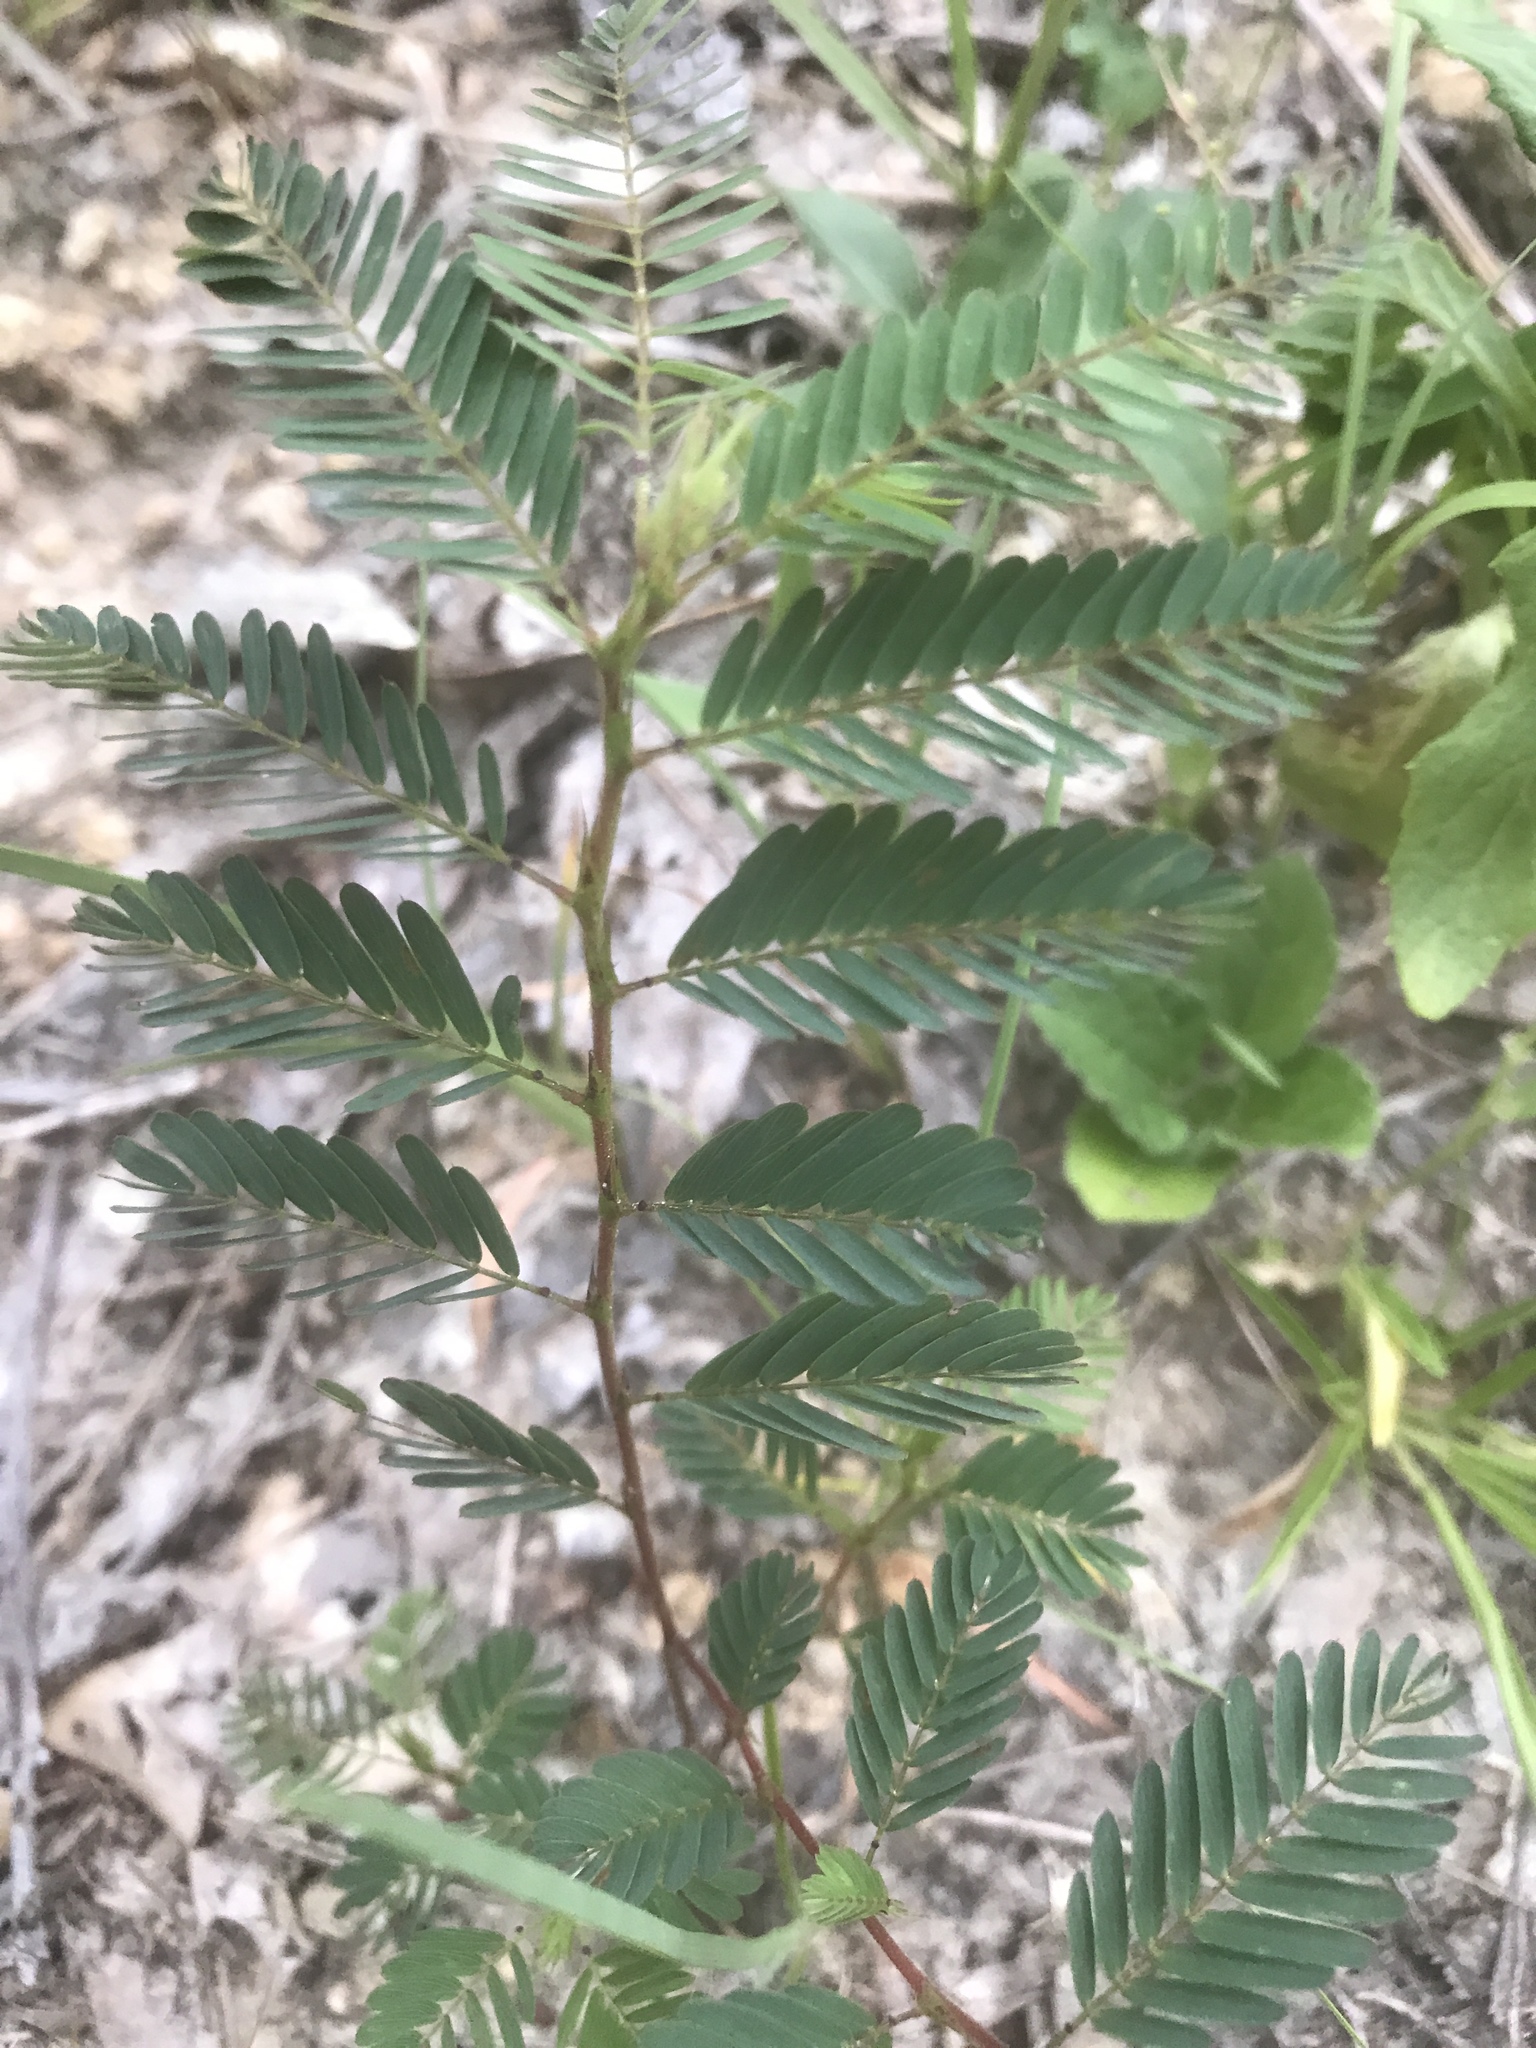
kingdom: Plantae
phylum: Tracheophyta
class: Magnoliopsida
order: Fabales
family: Fabaceae
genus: Chamaecrista
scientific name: Chamaecrista nictitans
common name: Sensitive cassia
